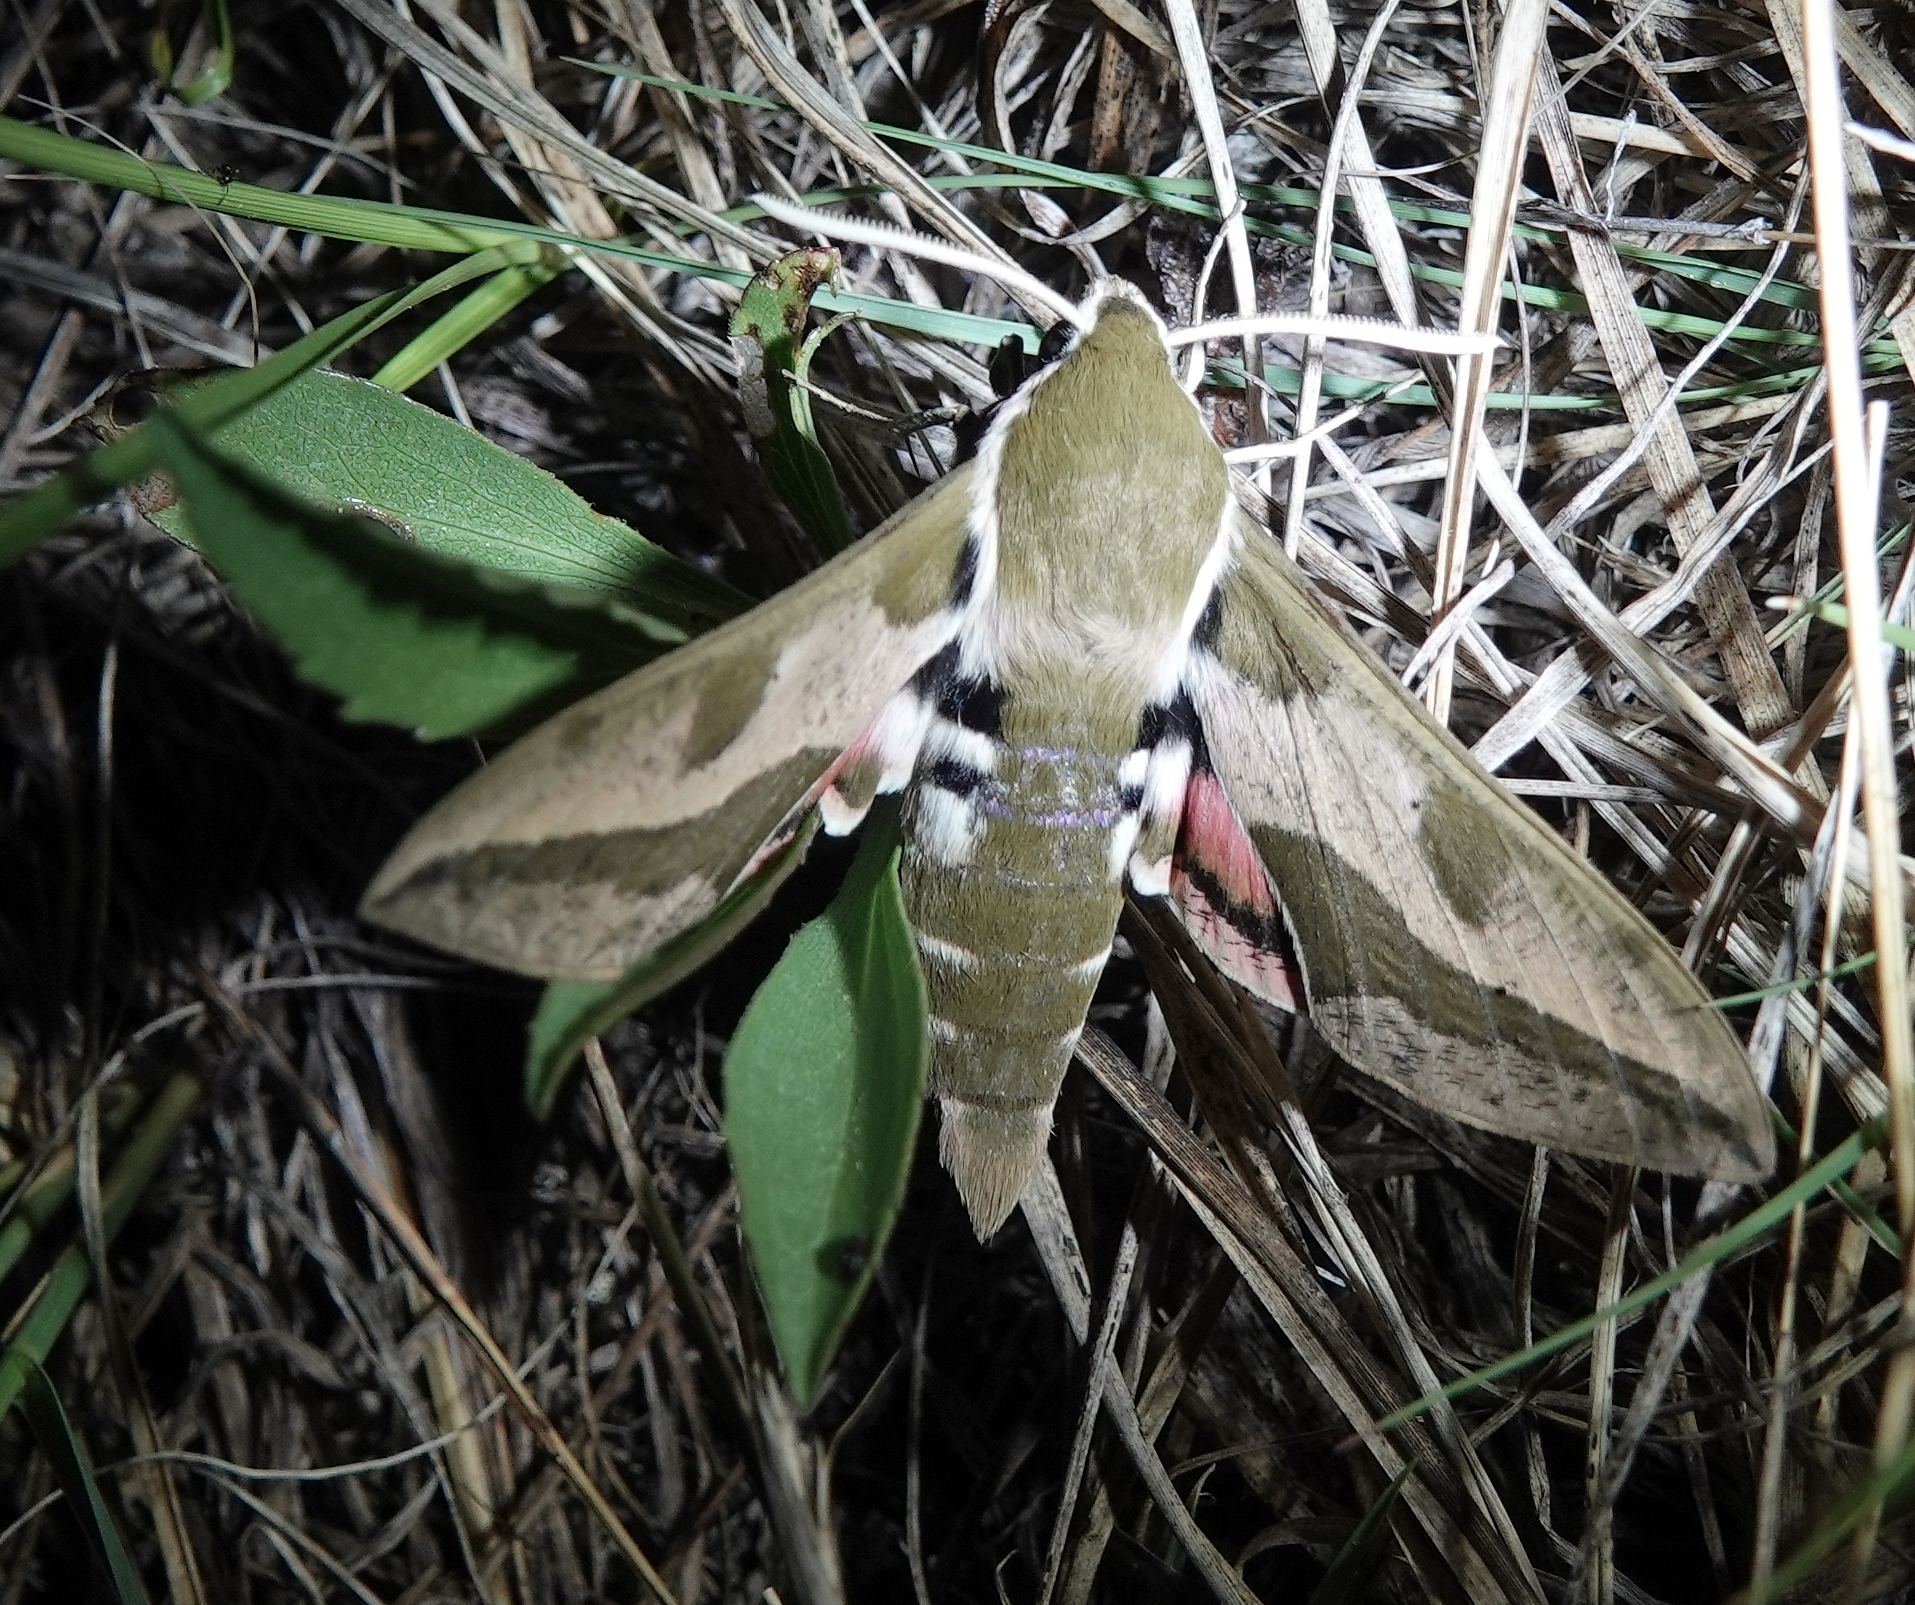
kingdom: Animalia
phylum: Arthropoda
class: Insecta
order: Lepidoptera
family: Sphingidae
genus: Hyles
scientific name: Hyles euphorbiae
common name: Spurge hawk-moth
